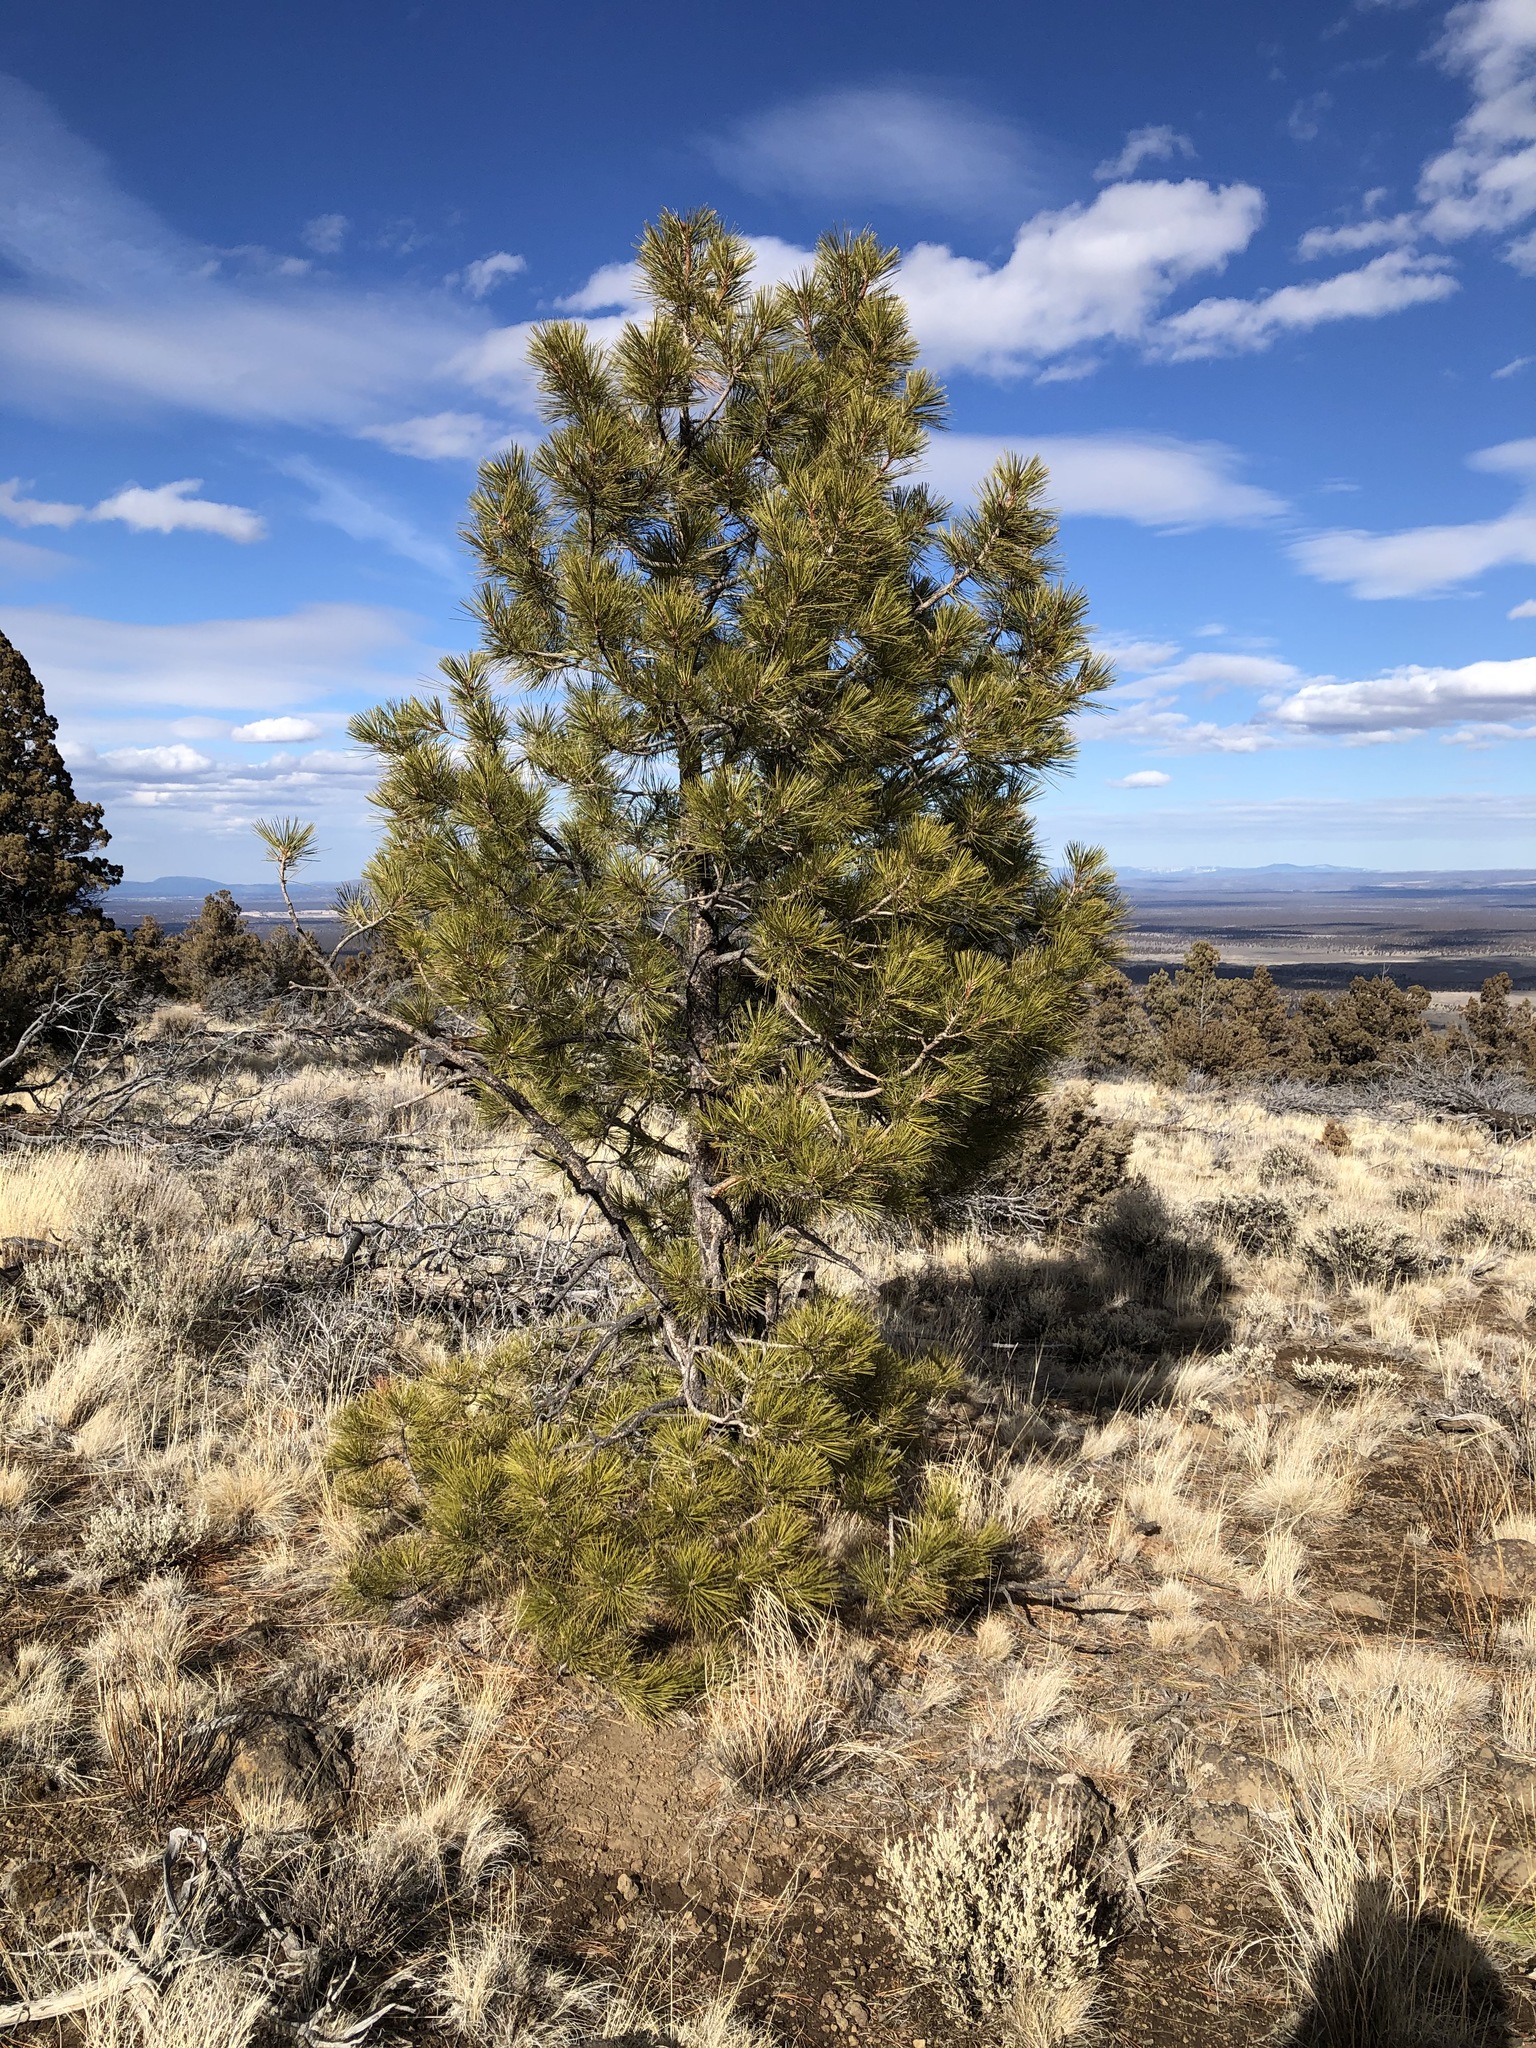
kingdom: Plantae
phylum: Tracheophyta
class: Pinopsida
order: Pinales
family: Pinaceae
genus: Pinus
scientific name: Pinus ponderosa
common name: Western yellow-pine
